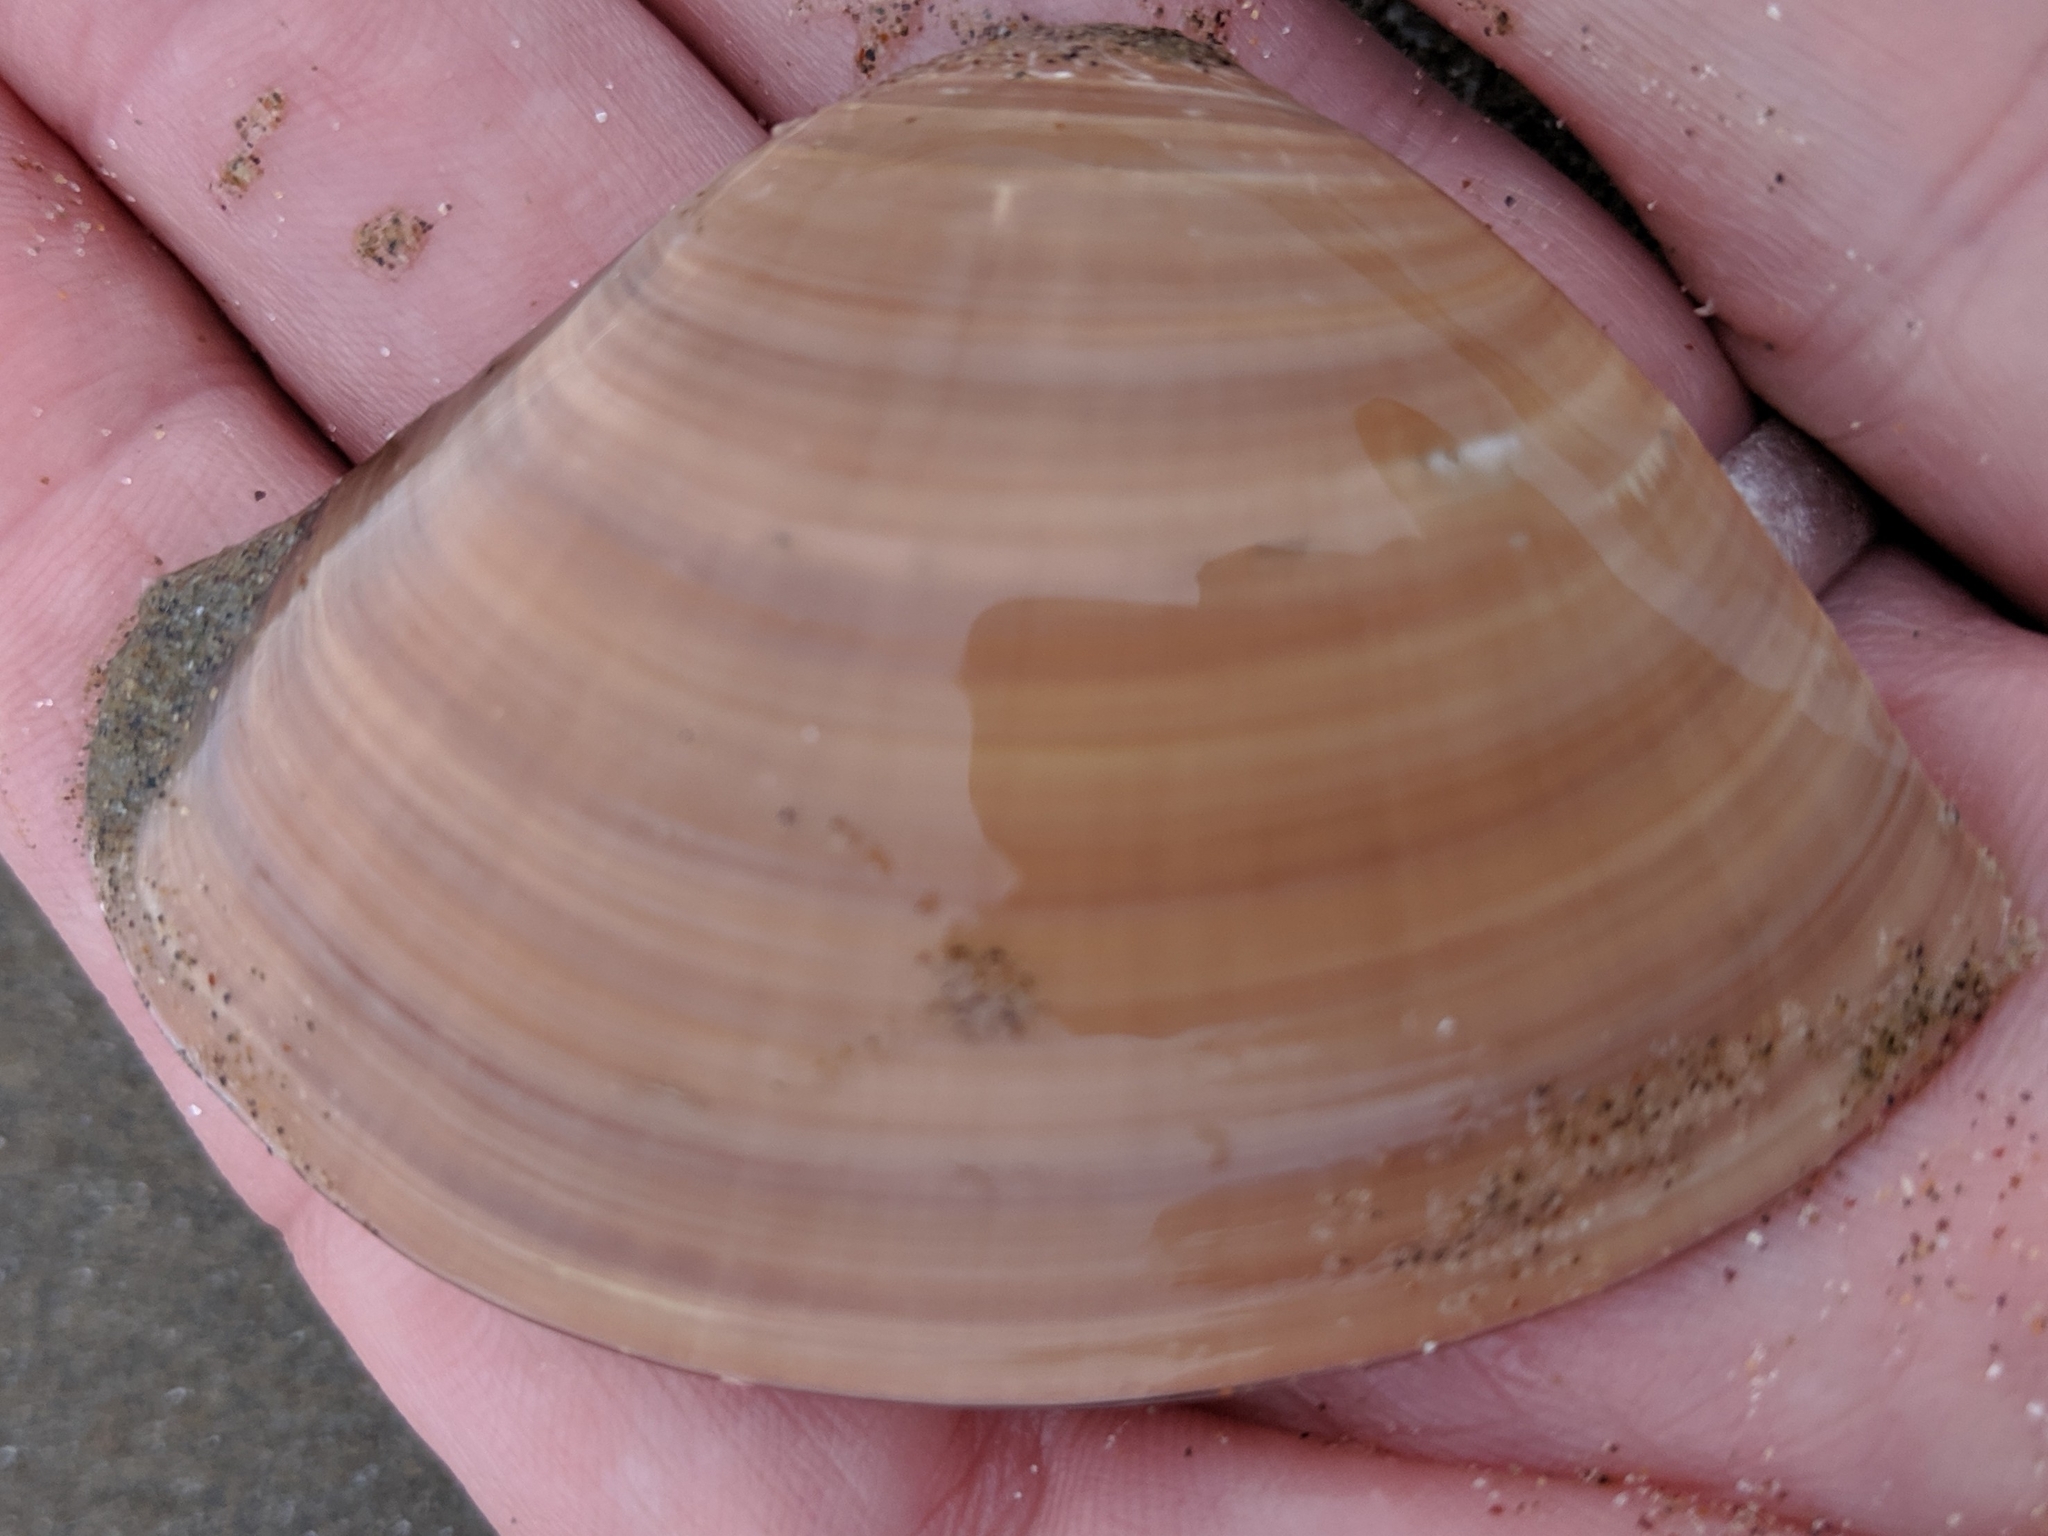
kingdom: Animalia
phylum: Mollusca
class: Bivalvia
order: Venerida
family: Veneridae
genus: Tivela
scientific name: Tivela stultorum
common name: Pismo clam
